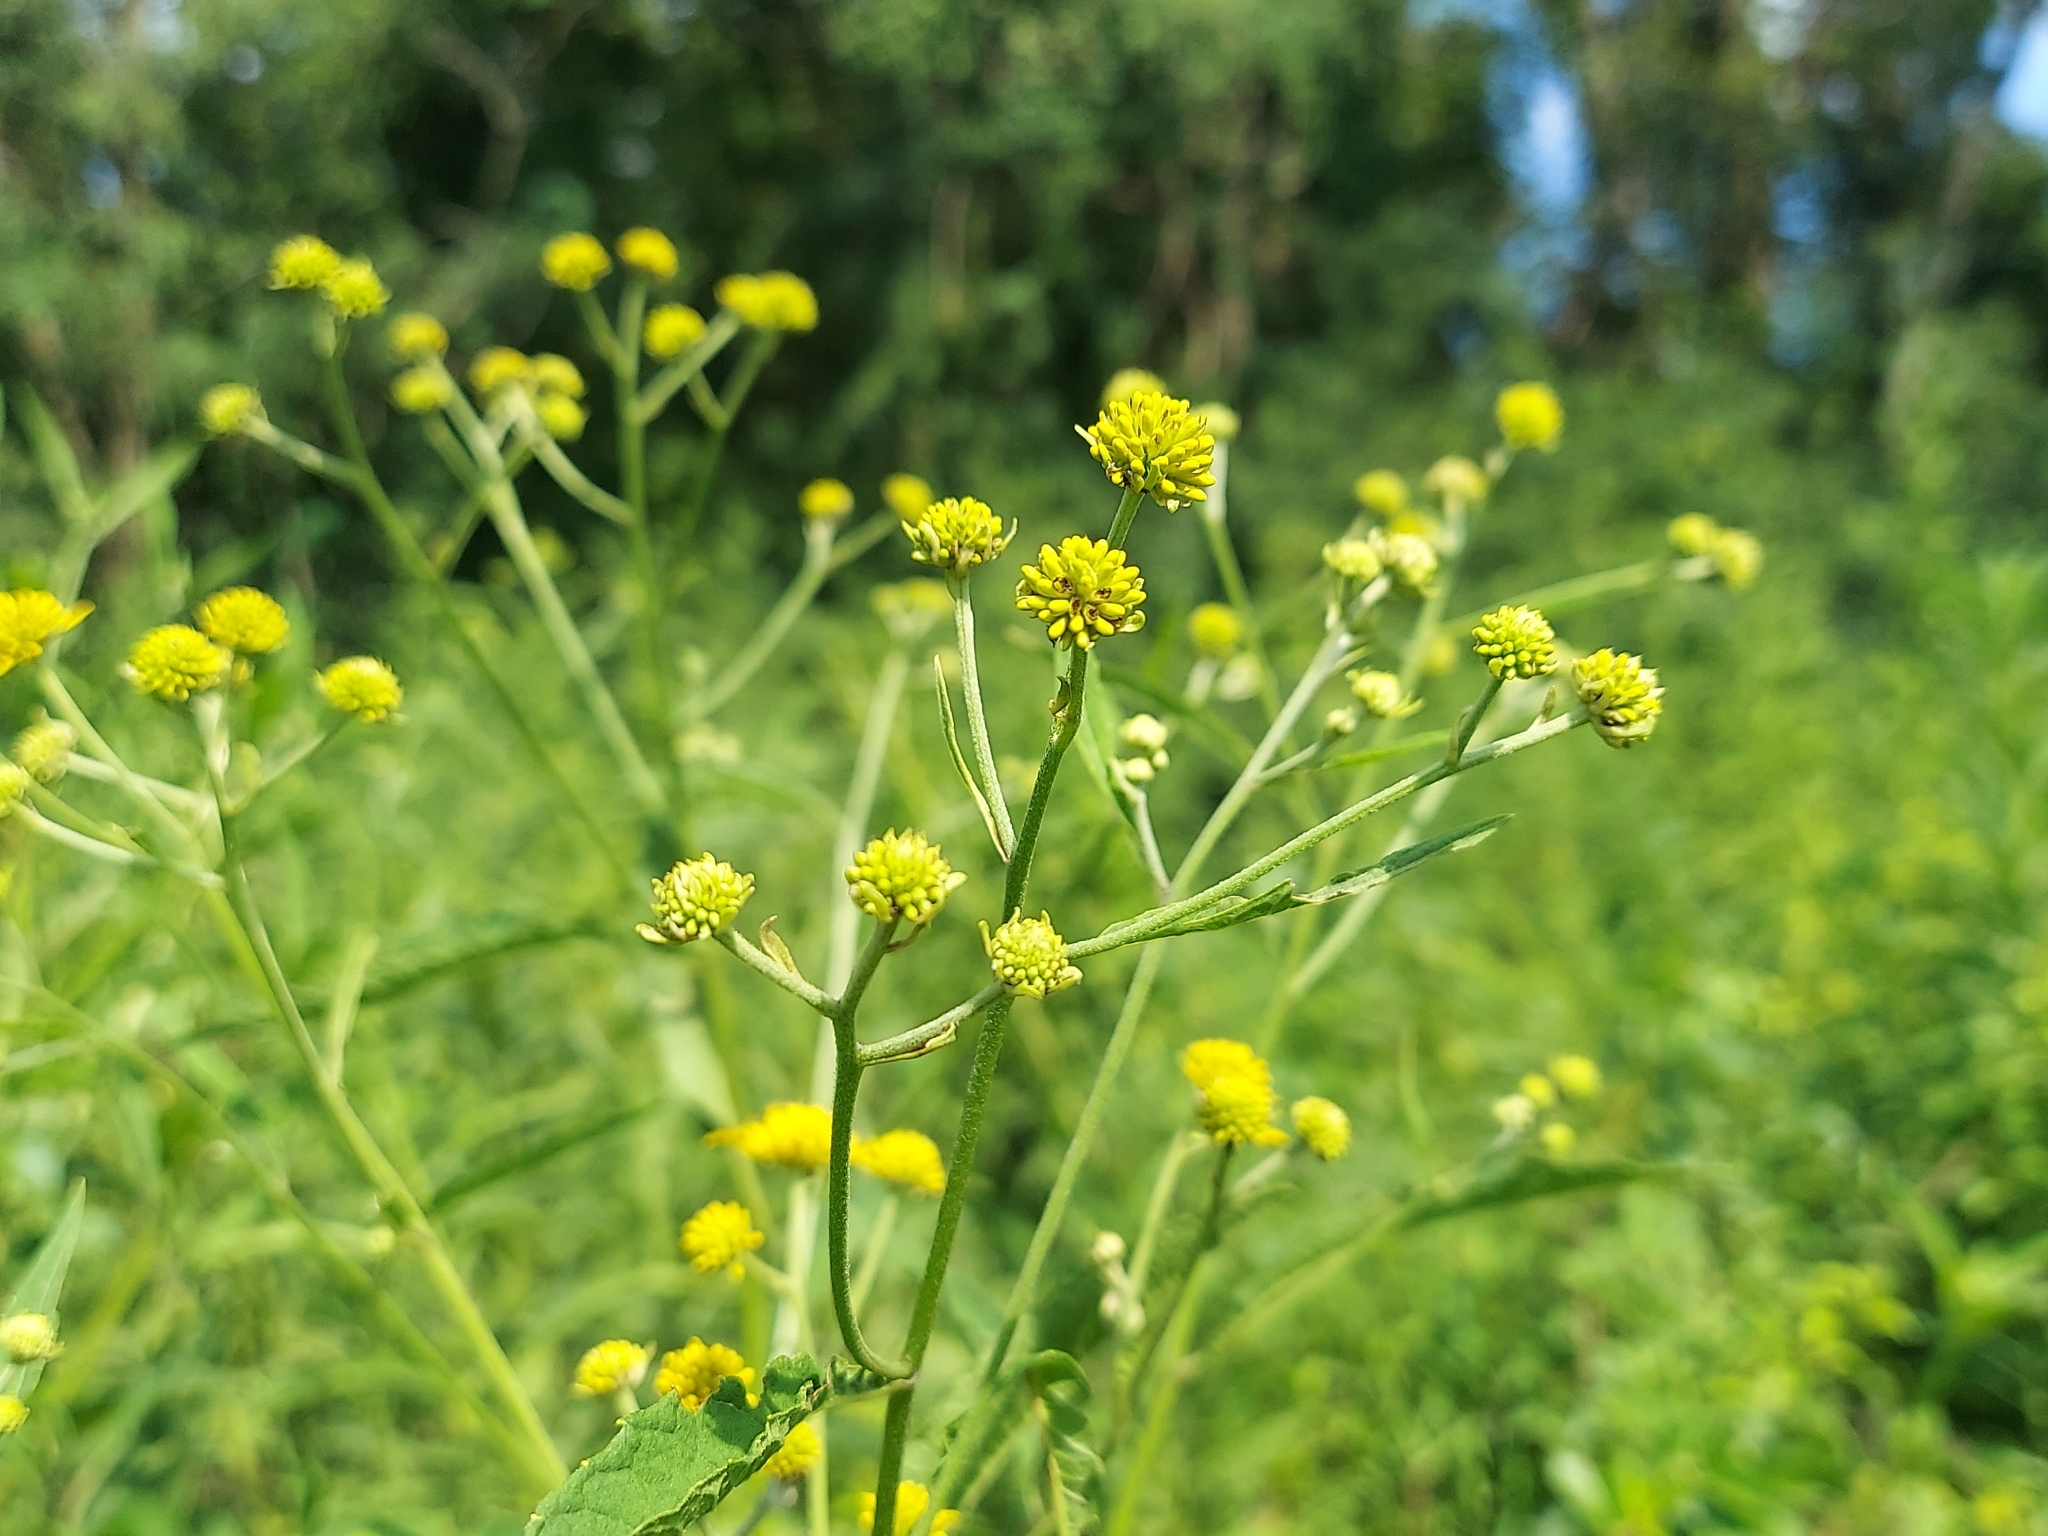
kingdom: Plantae
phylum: Tracheophyta
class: Magnoliopsida
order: Asterales
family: Asteraceae
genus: Verbesina
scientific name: Verbesina alternifolia
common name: Wingstem
